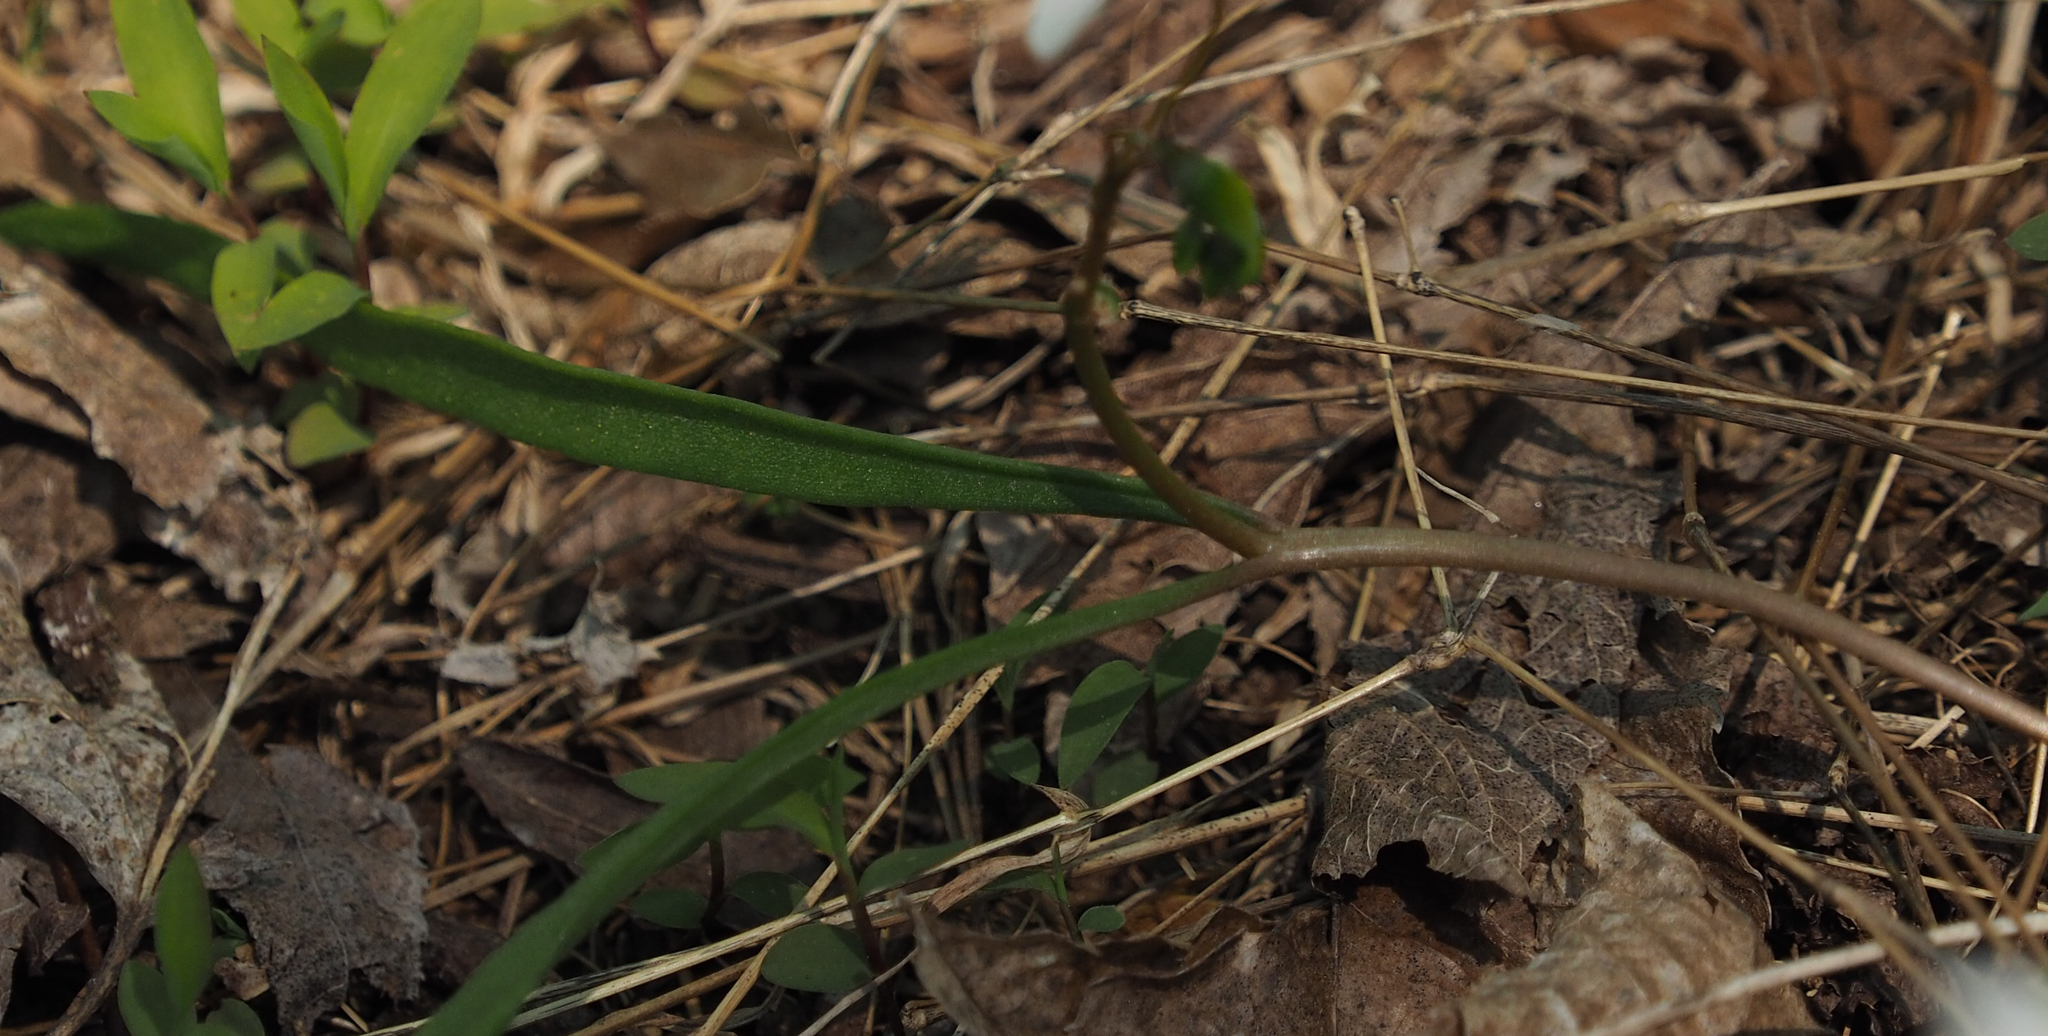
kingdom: Plantae
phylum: Tracheophyta
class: Magnoliopsida
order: Caryophyllales
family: Montiaceae
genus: Claytonia
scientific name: Claytonia virginica
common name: Virginia springbeauty
